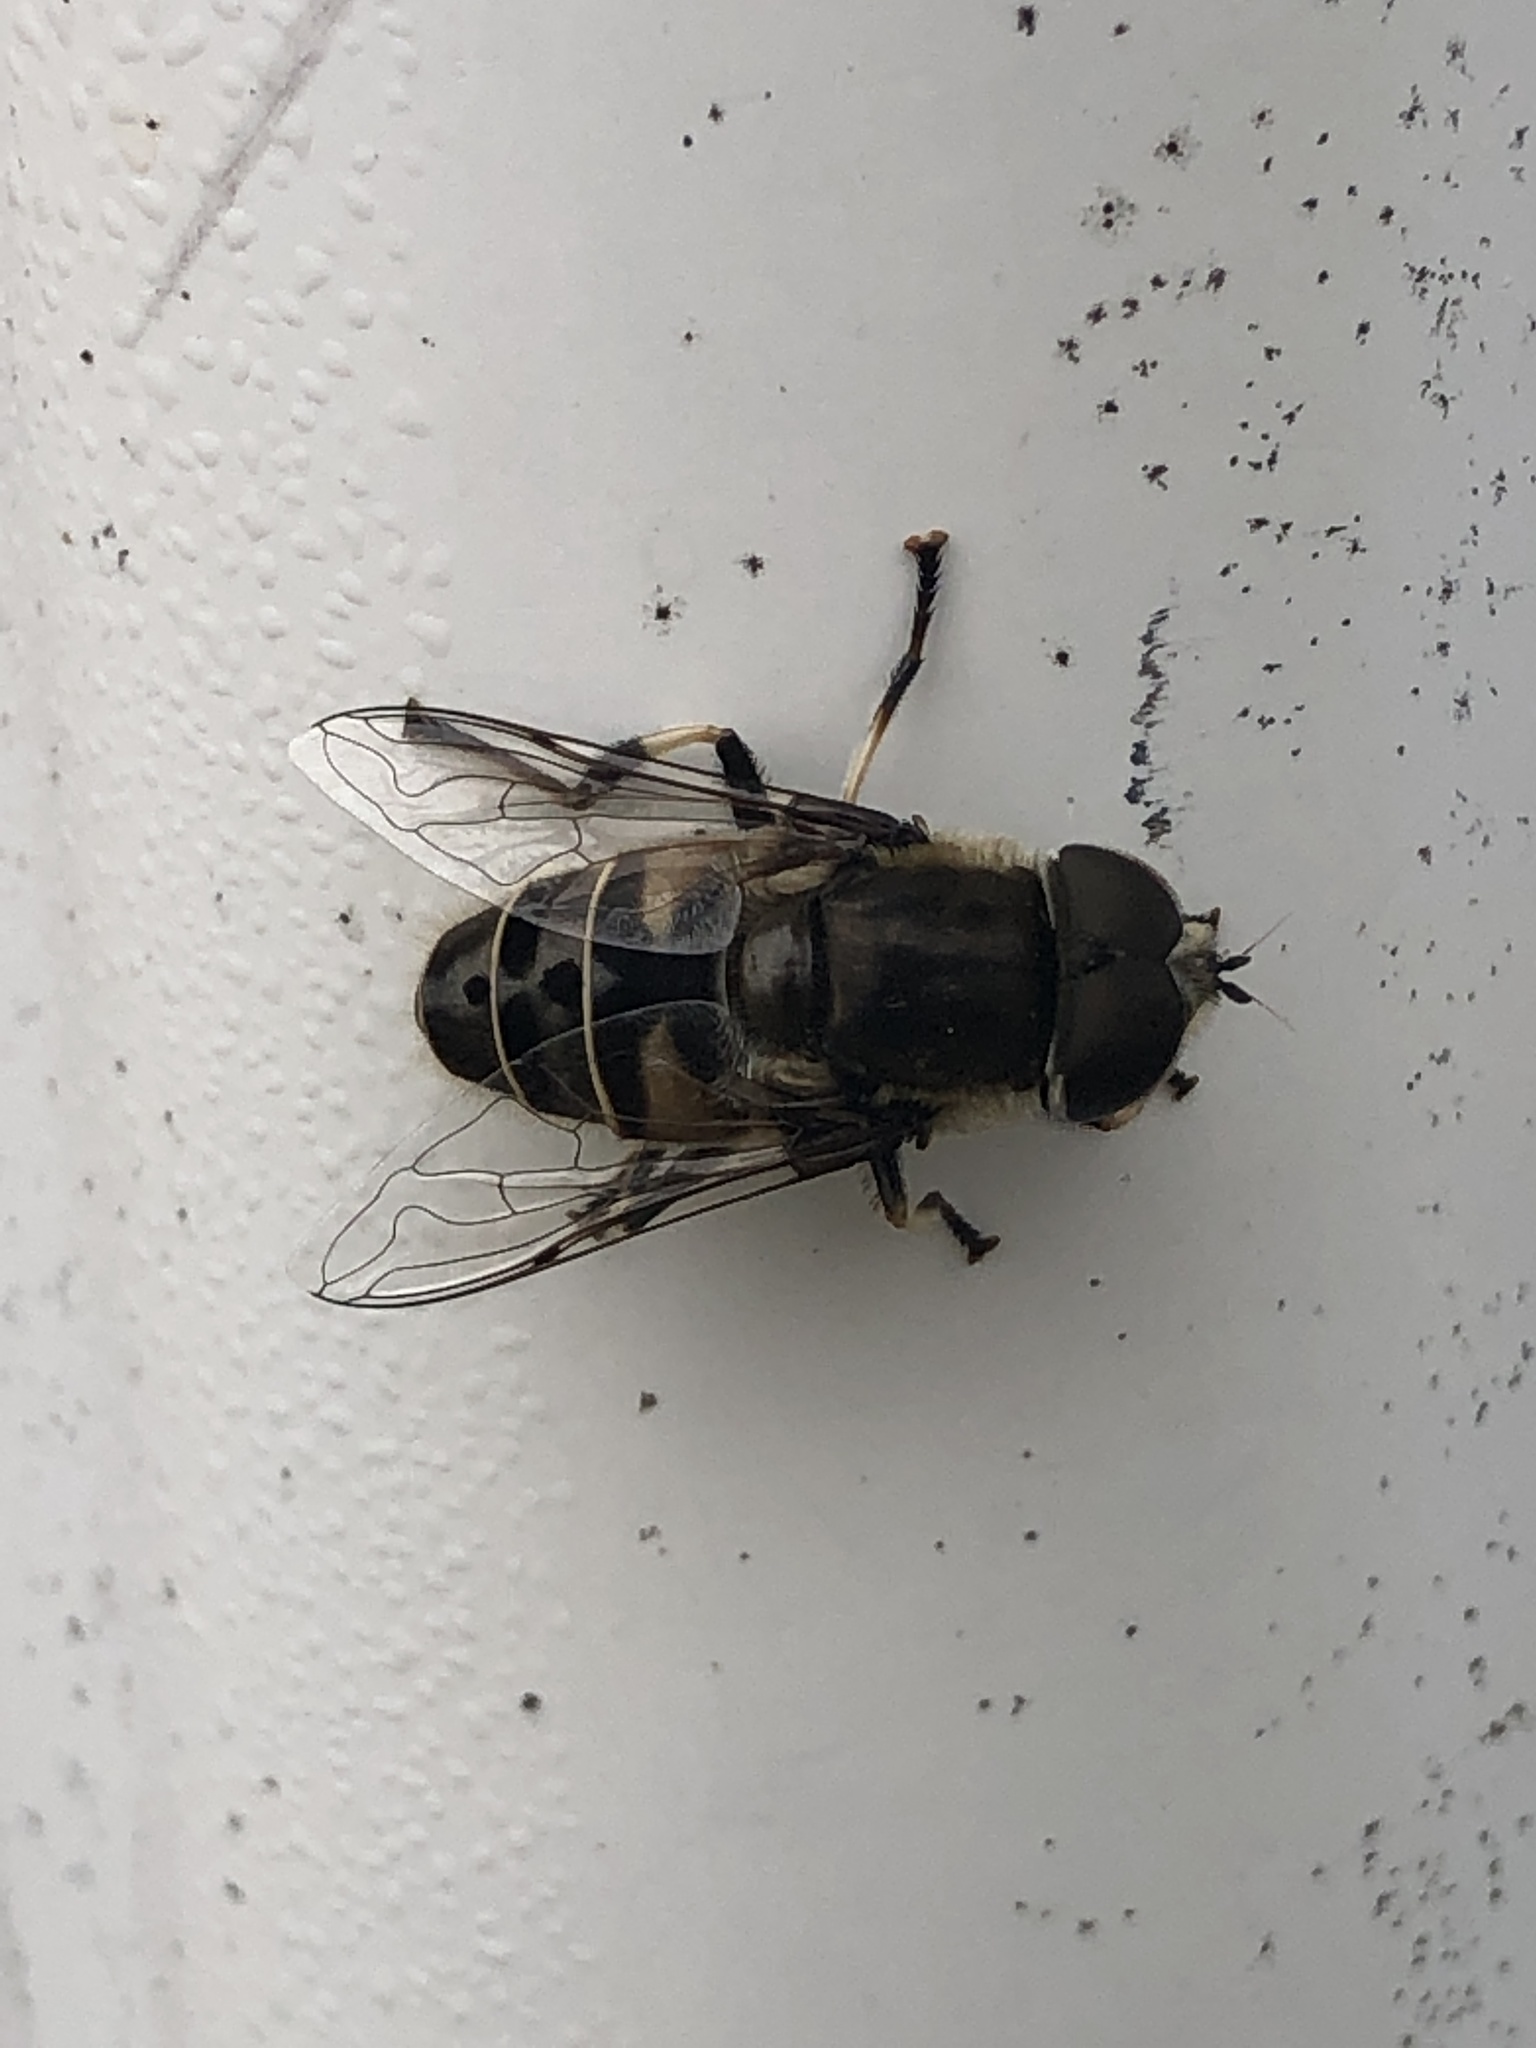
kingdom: Animalia
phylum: Arthropoda
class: Insecta
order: Diptera
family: Syrphidae
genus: Eristalis
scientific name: Eristalis dimidiata
